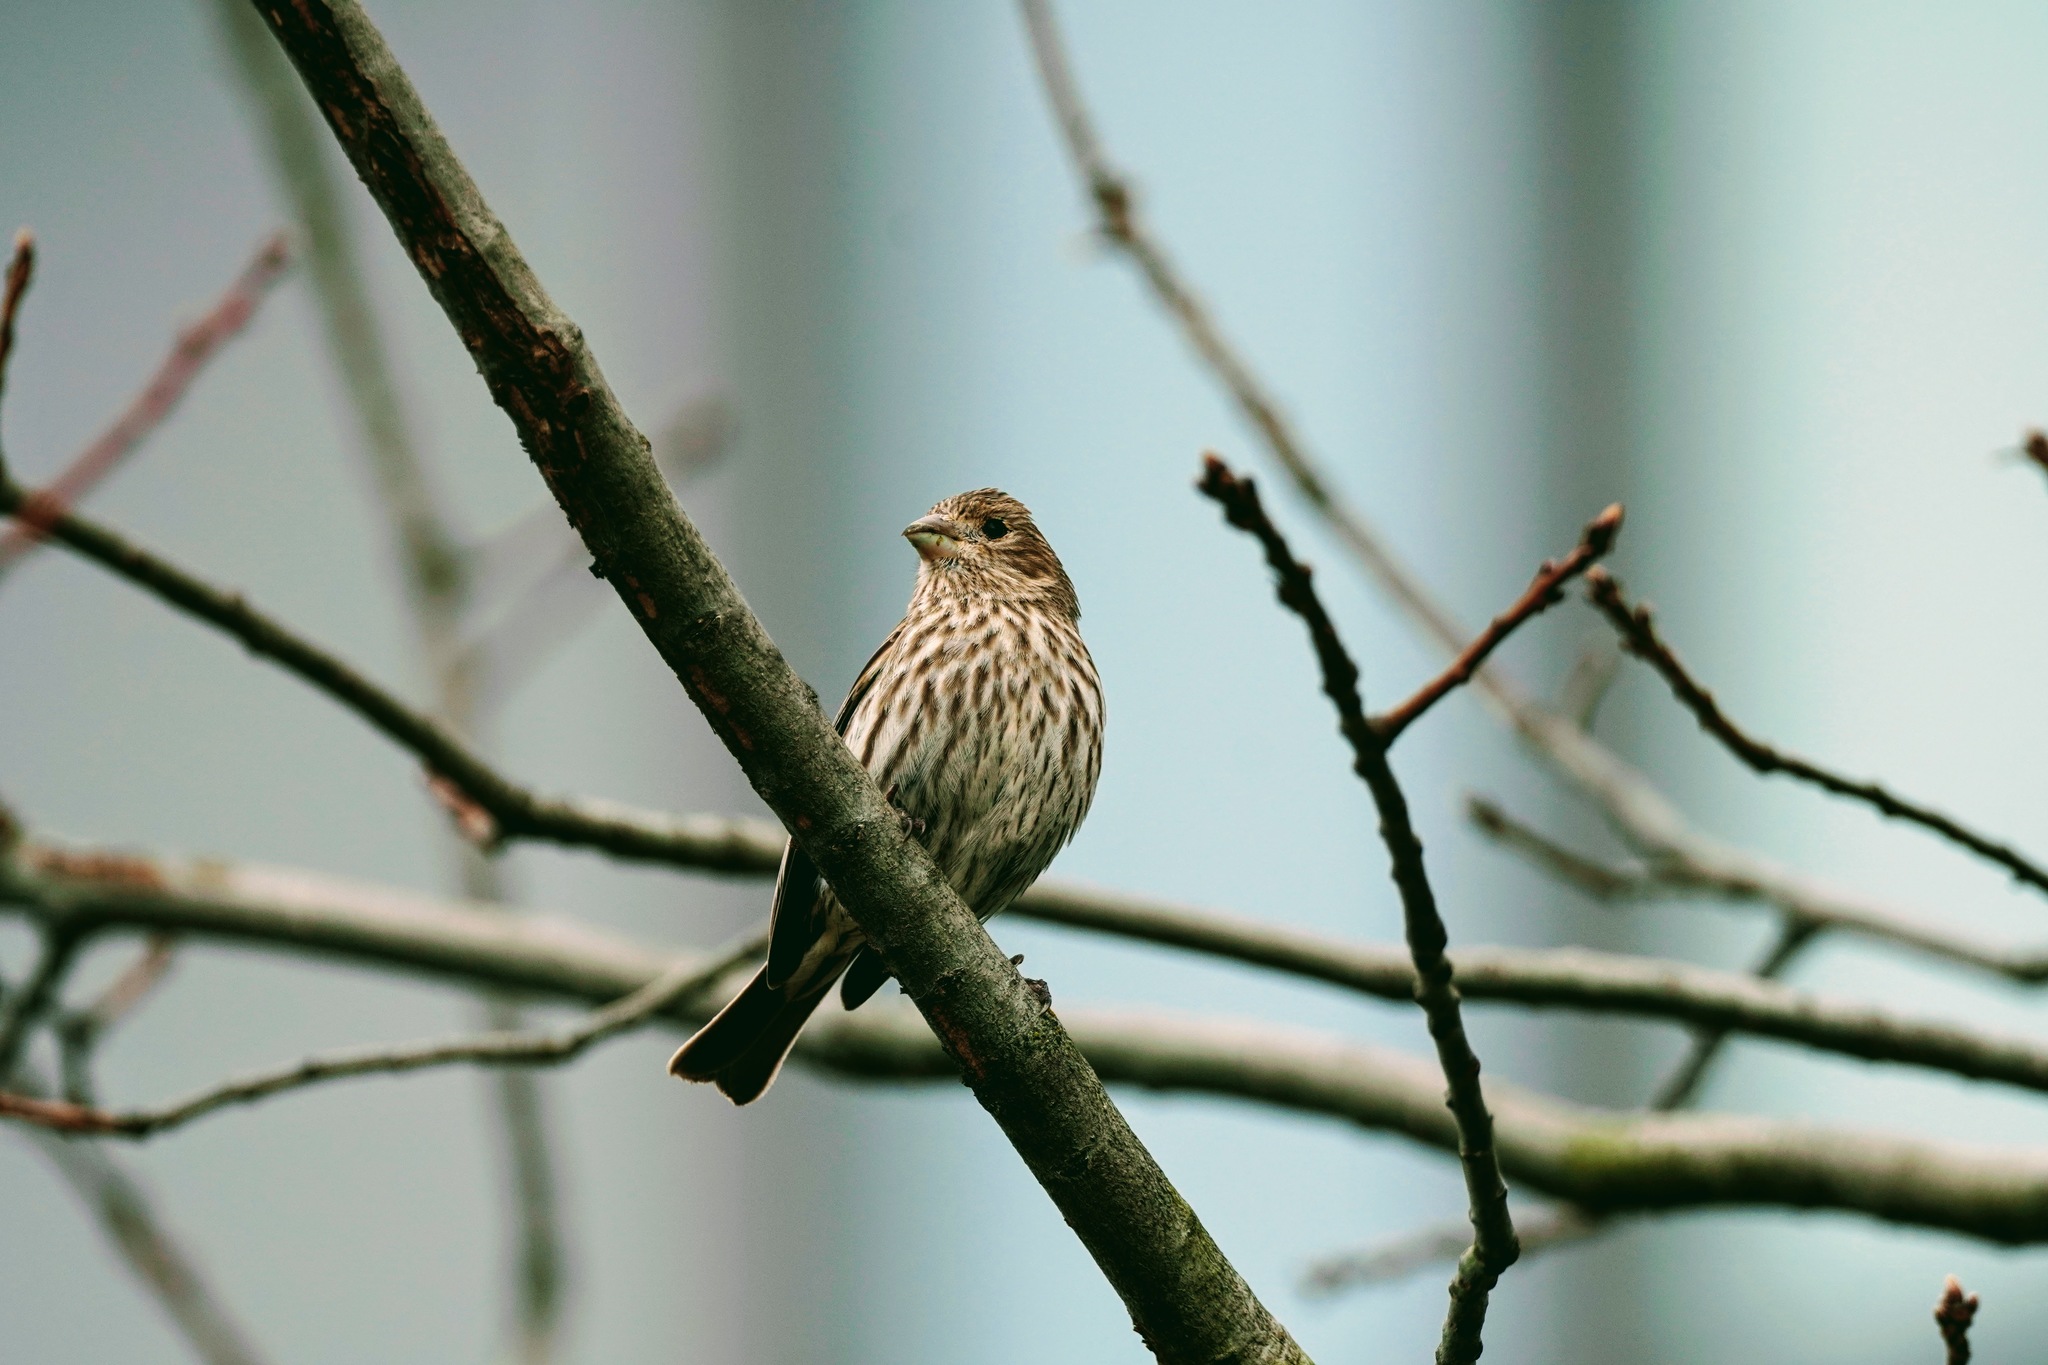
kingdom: Animalia
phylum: Chordata
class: Aves
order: Passeriformes
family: Fringillidae
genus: Haemorhous
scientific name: Haemorhous mexicanus
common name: House finch
